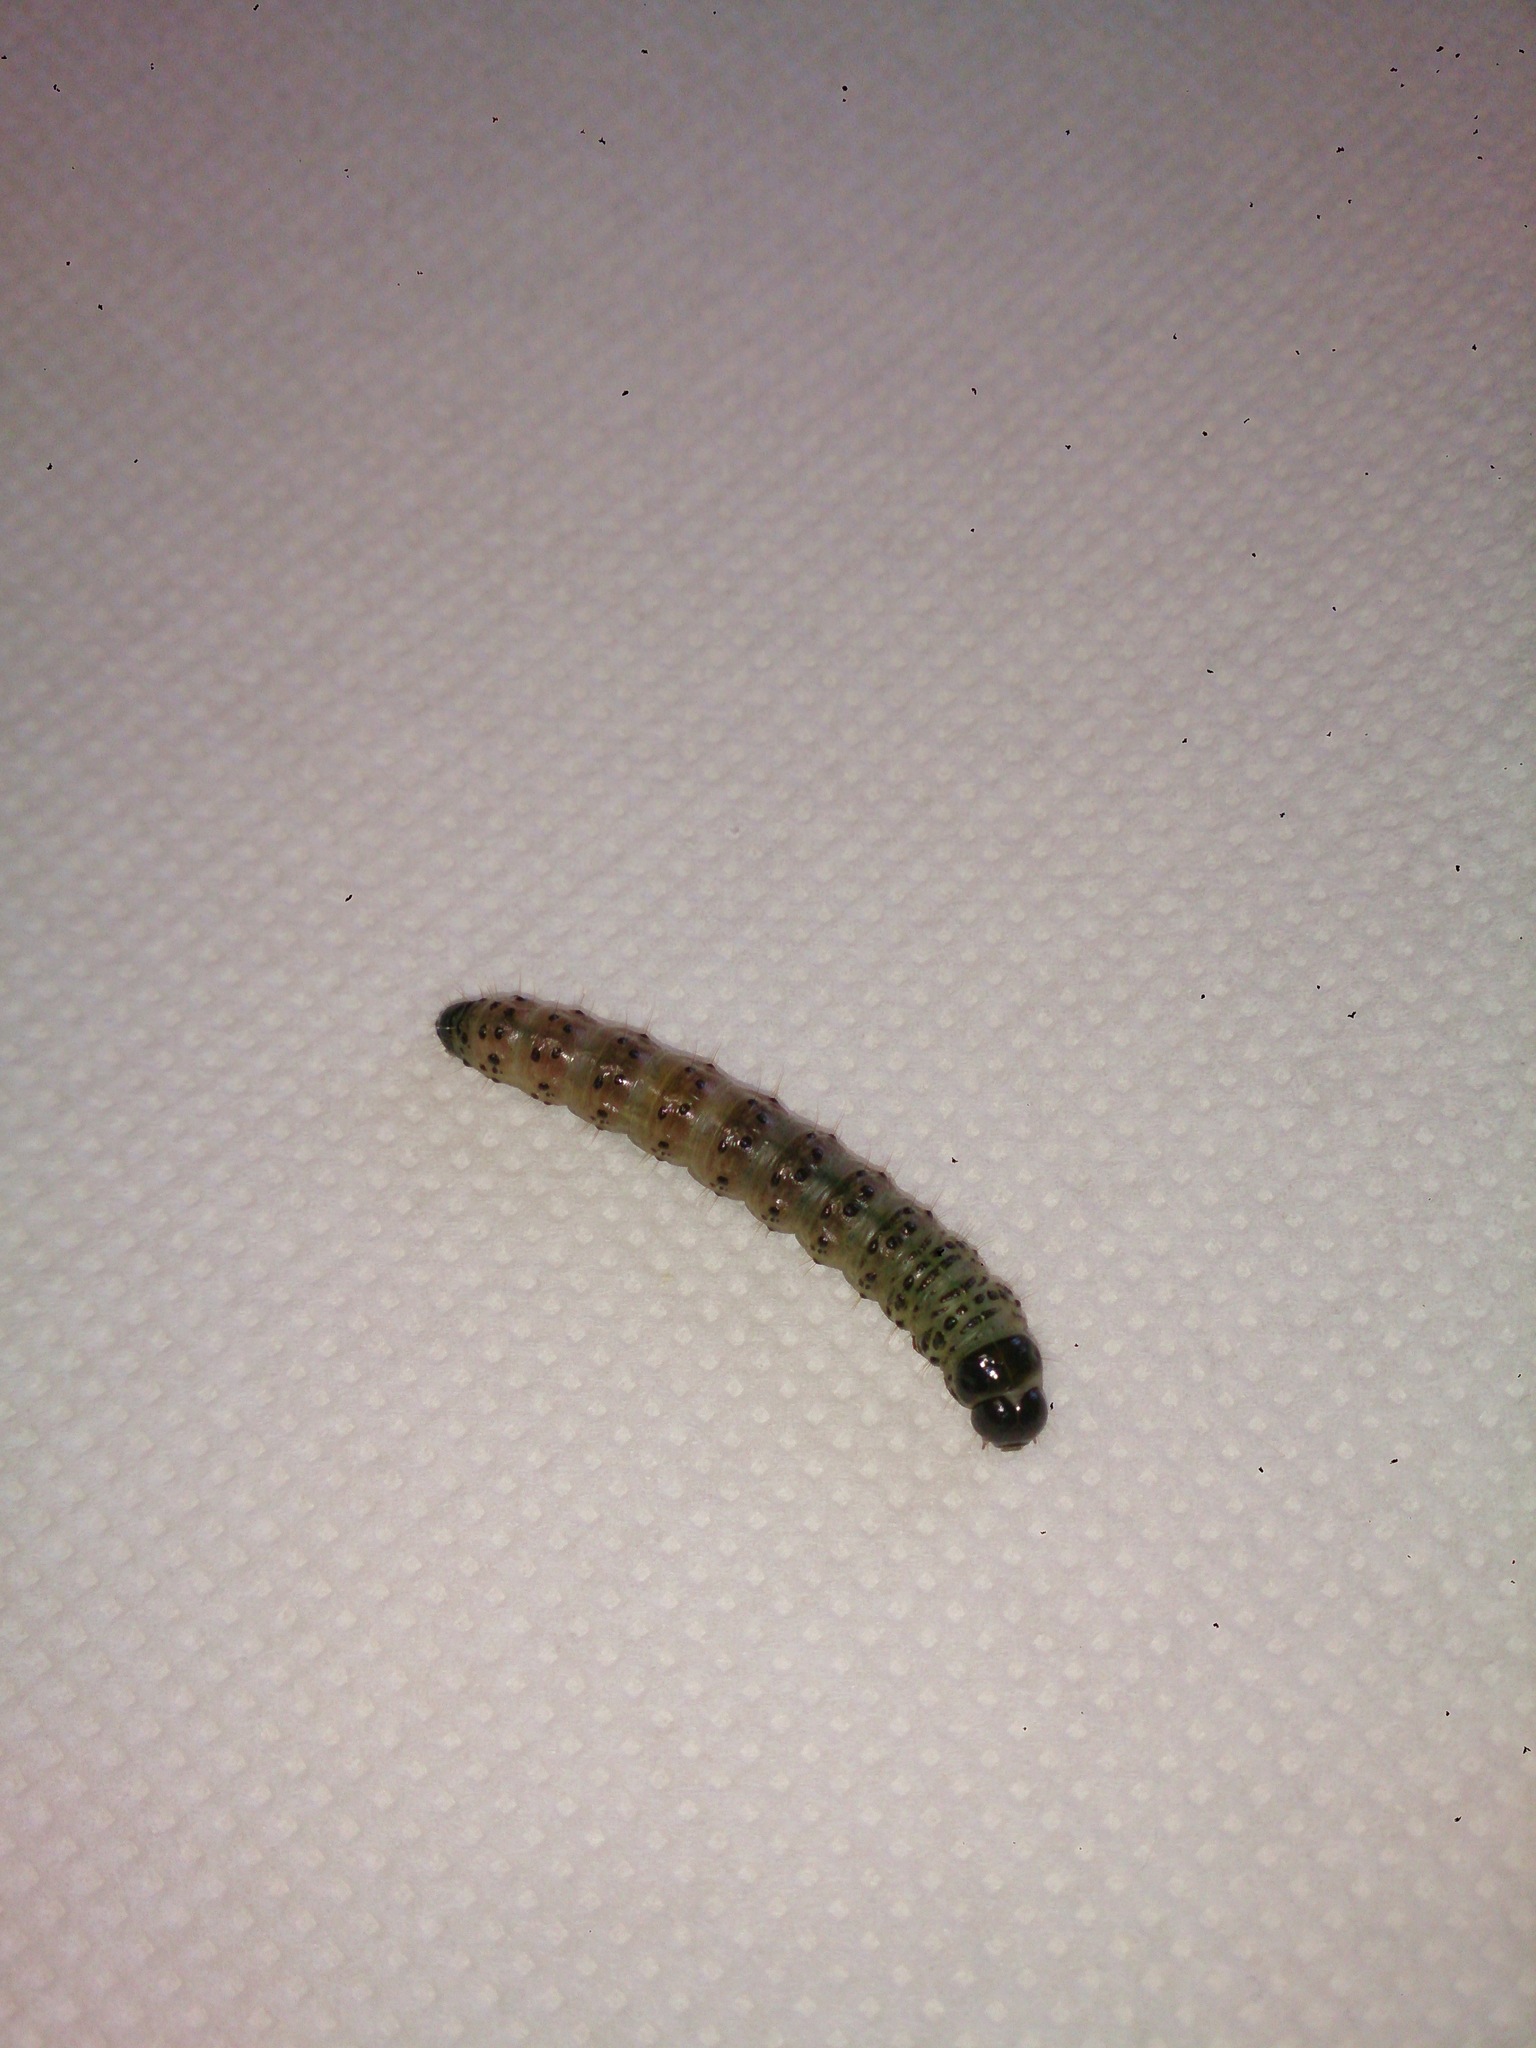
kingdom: Animalia
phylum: Arthropoda
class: Insecta
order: Lepidoptera
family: Noctuidae
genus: Apamea
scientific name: Apamea monoglypha
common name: Dark arches
